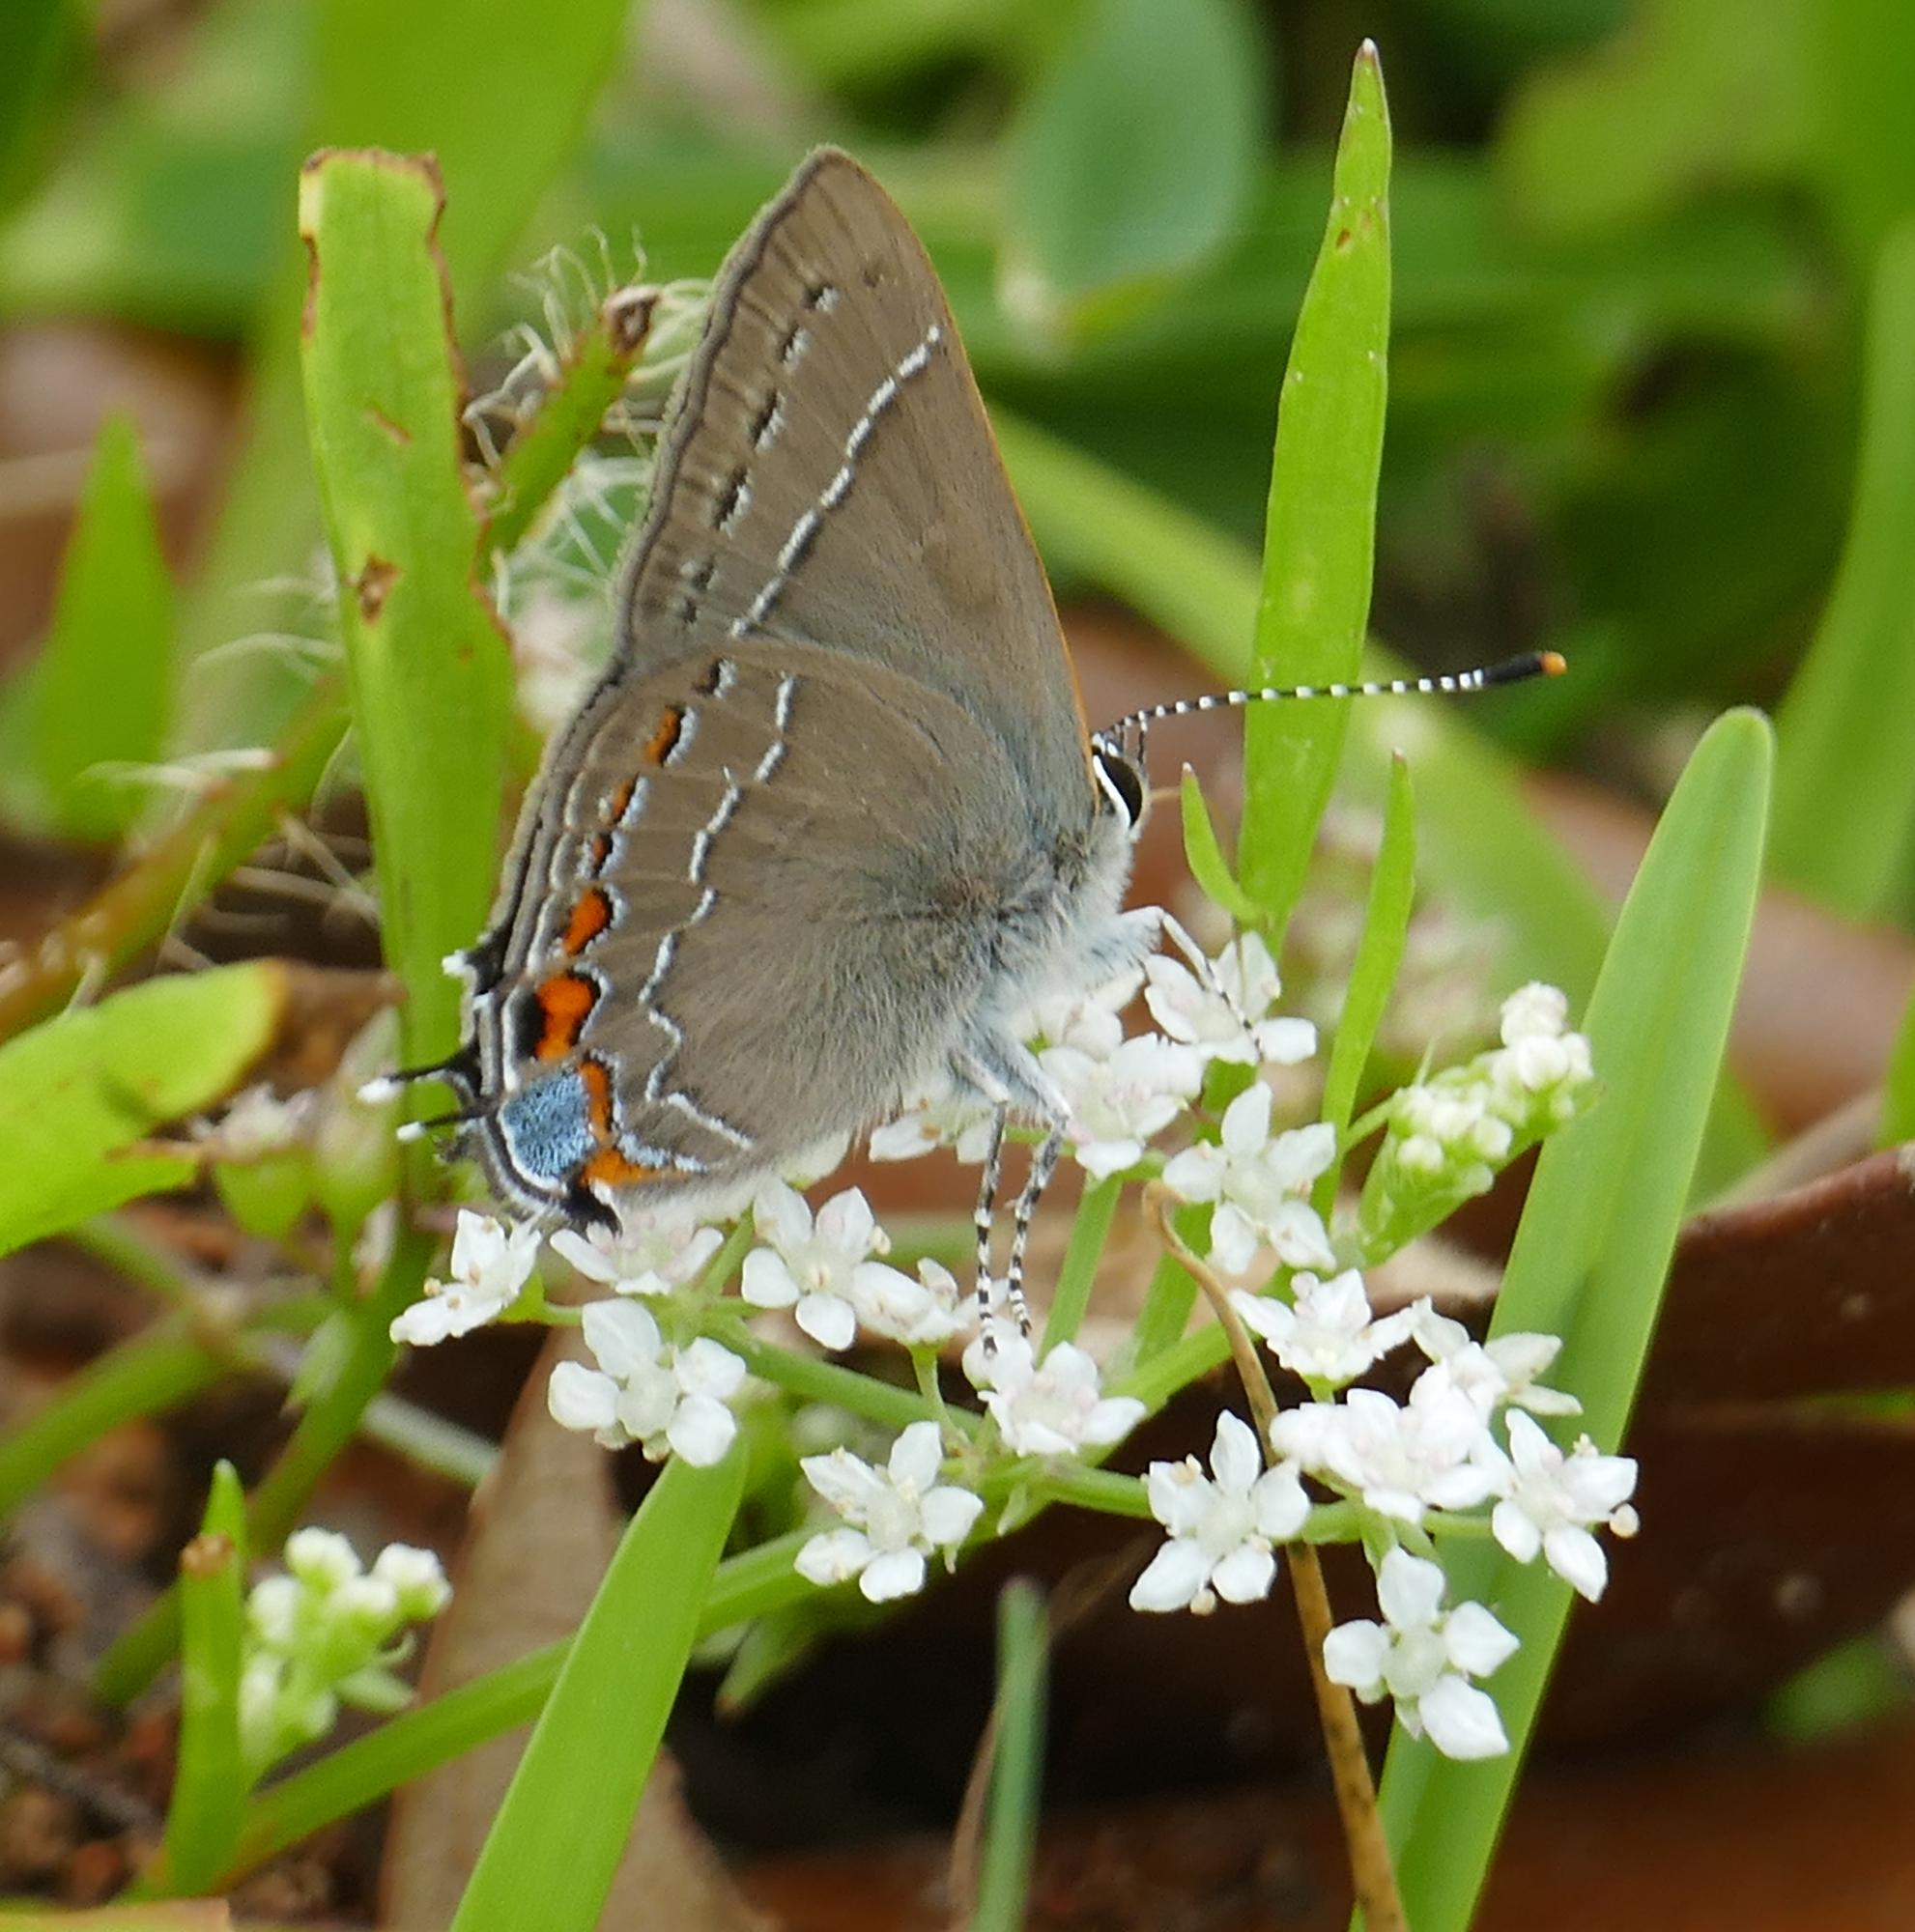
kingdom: Animalia
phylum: Arthropoda
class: Insecta
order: Lepidoptera
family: Lycaenidae
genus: Fixsenia
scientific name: Fixsenia favonius
